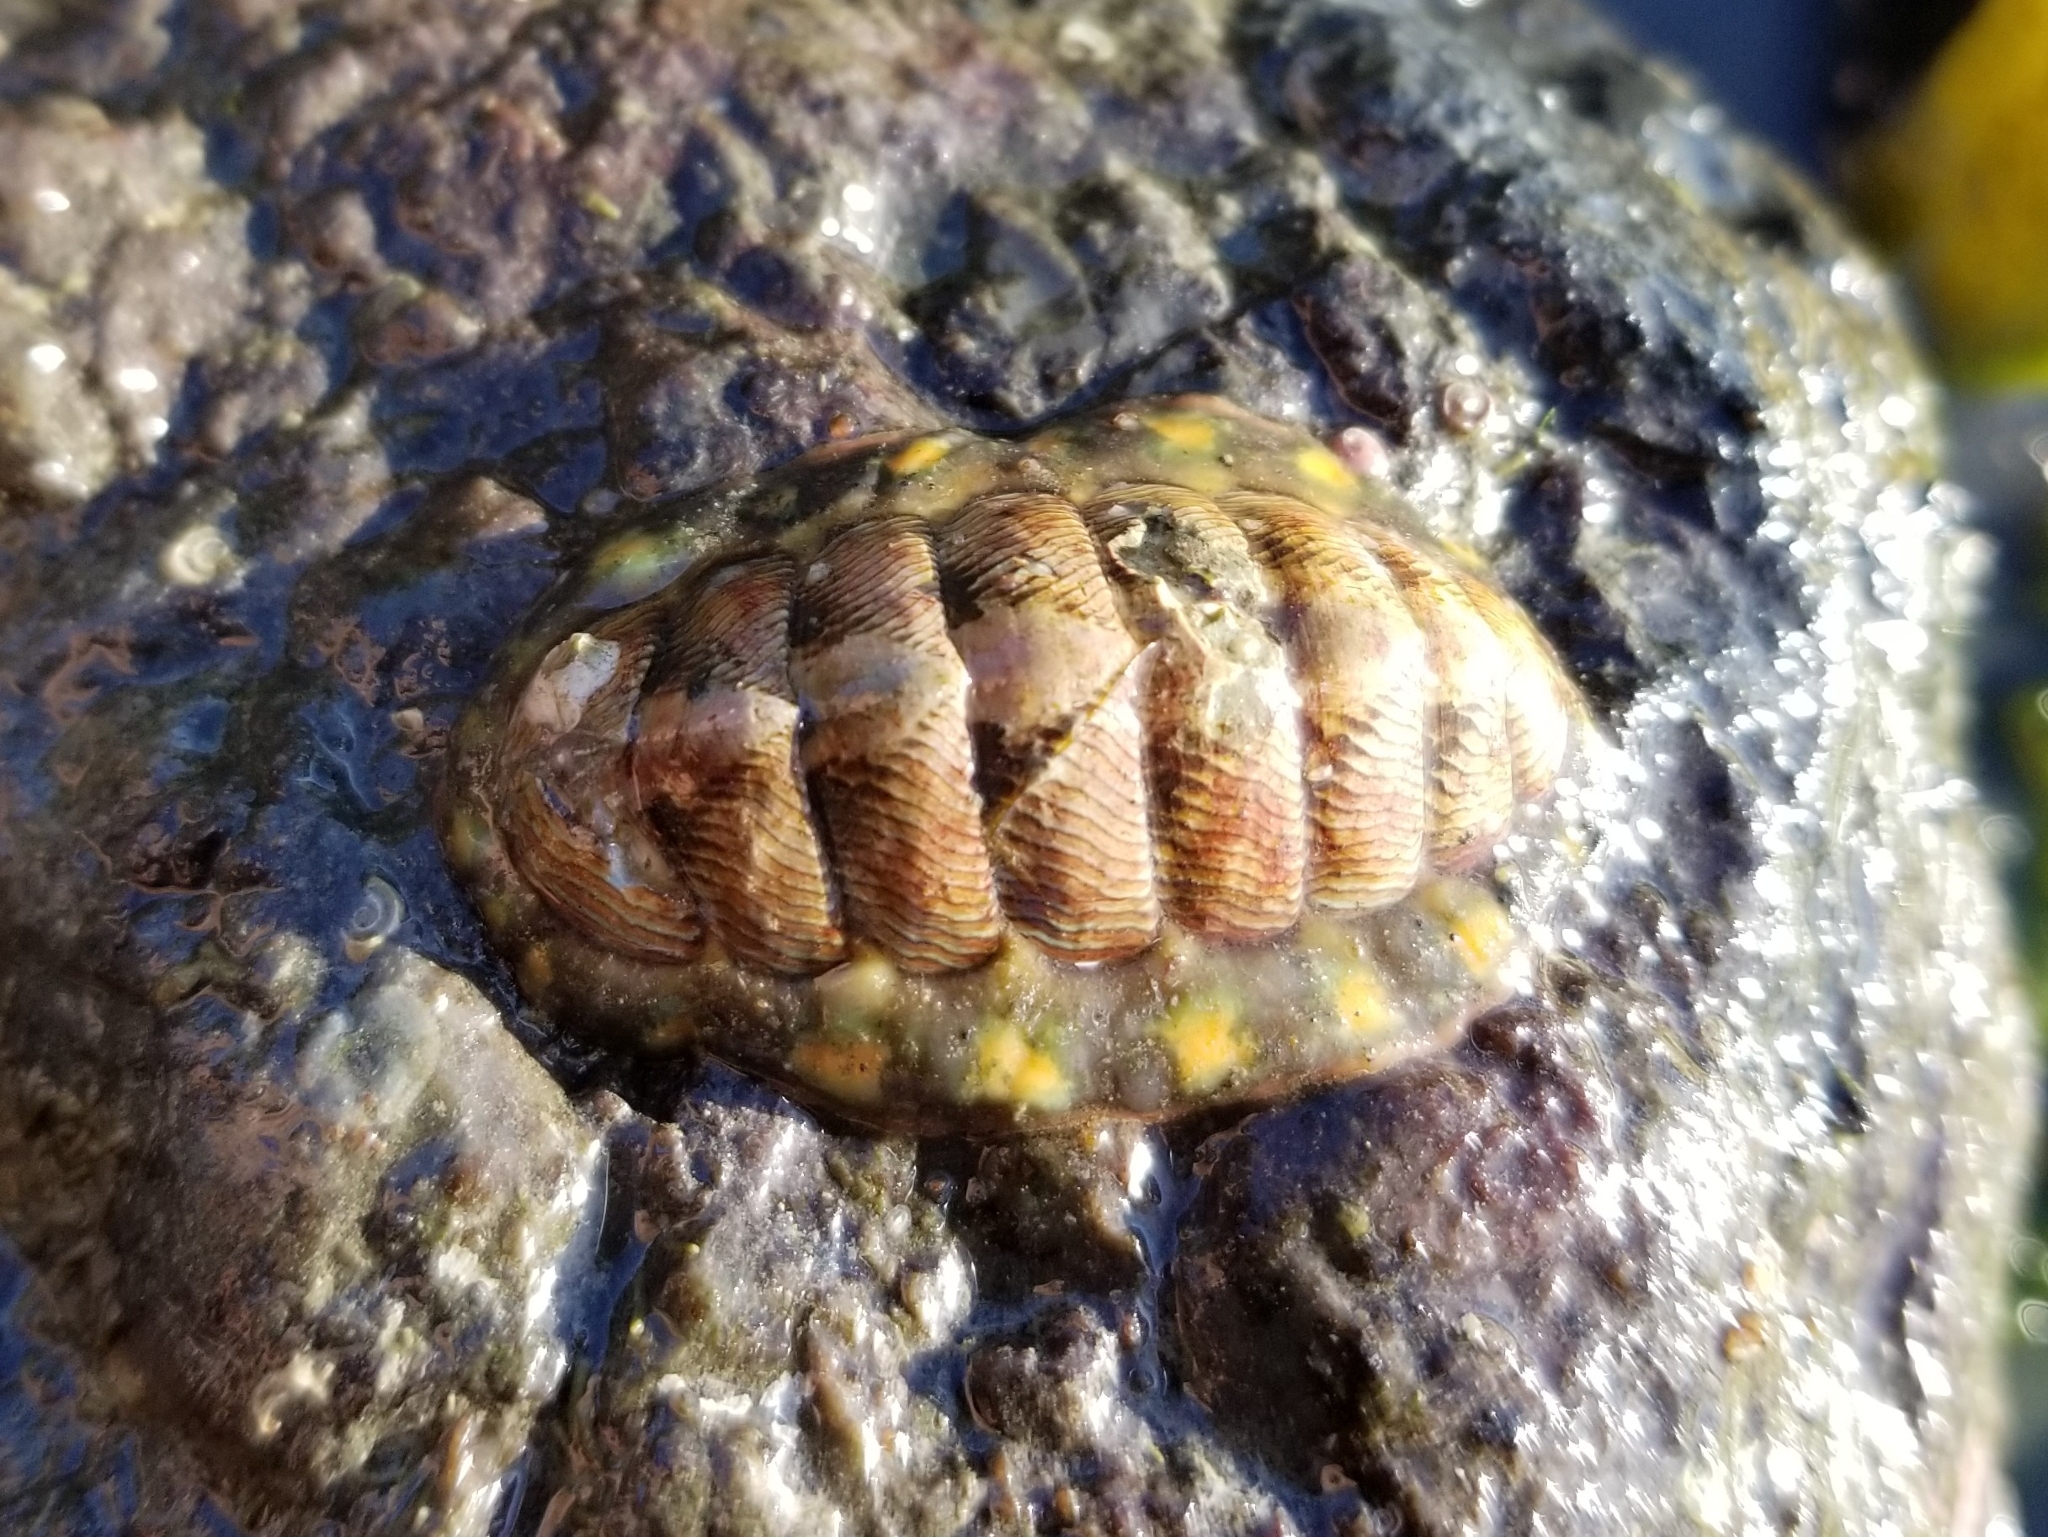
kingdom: Animalia
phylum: Mollusca
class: Polyplacophora
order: Chitonida
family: Tonicellidae
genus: Tonicella
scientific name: Tonicella lineata
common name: Lined chiton
